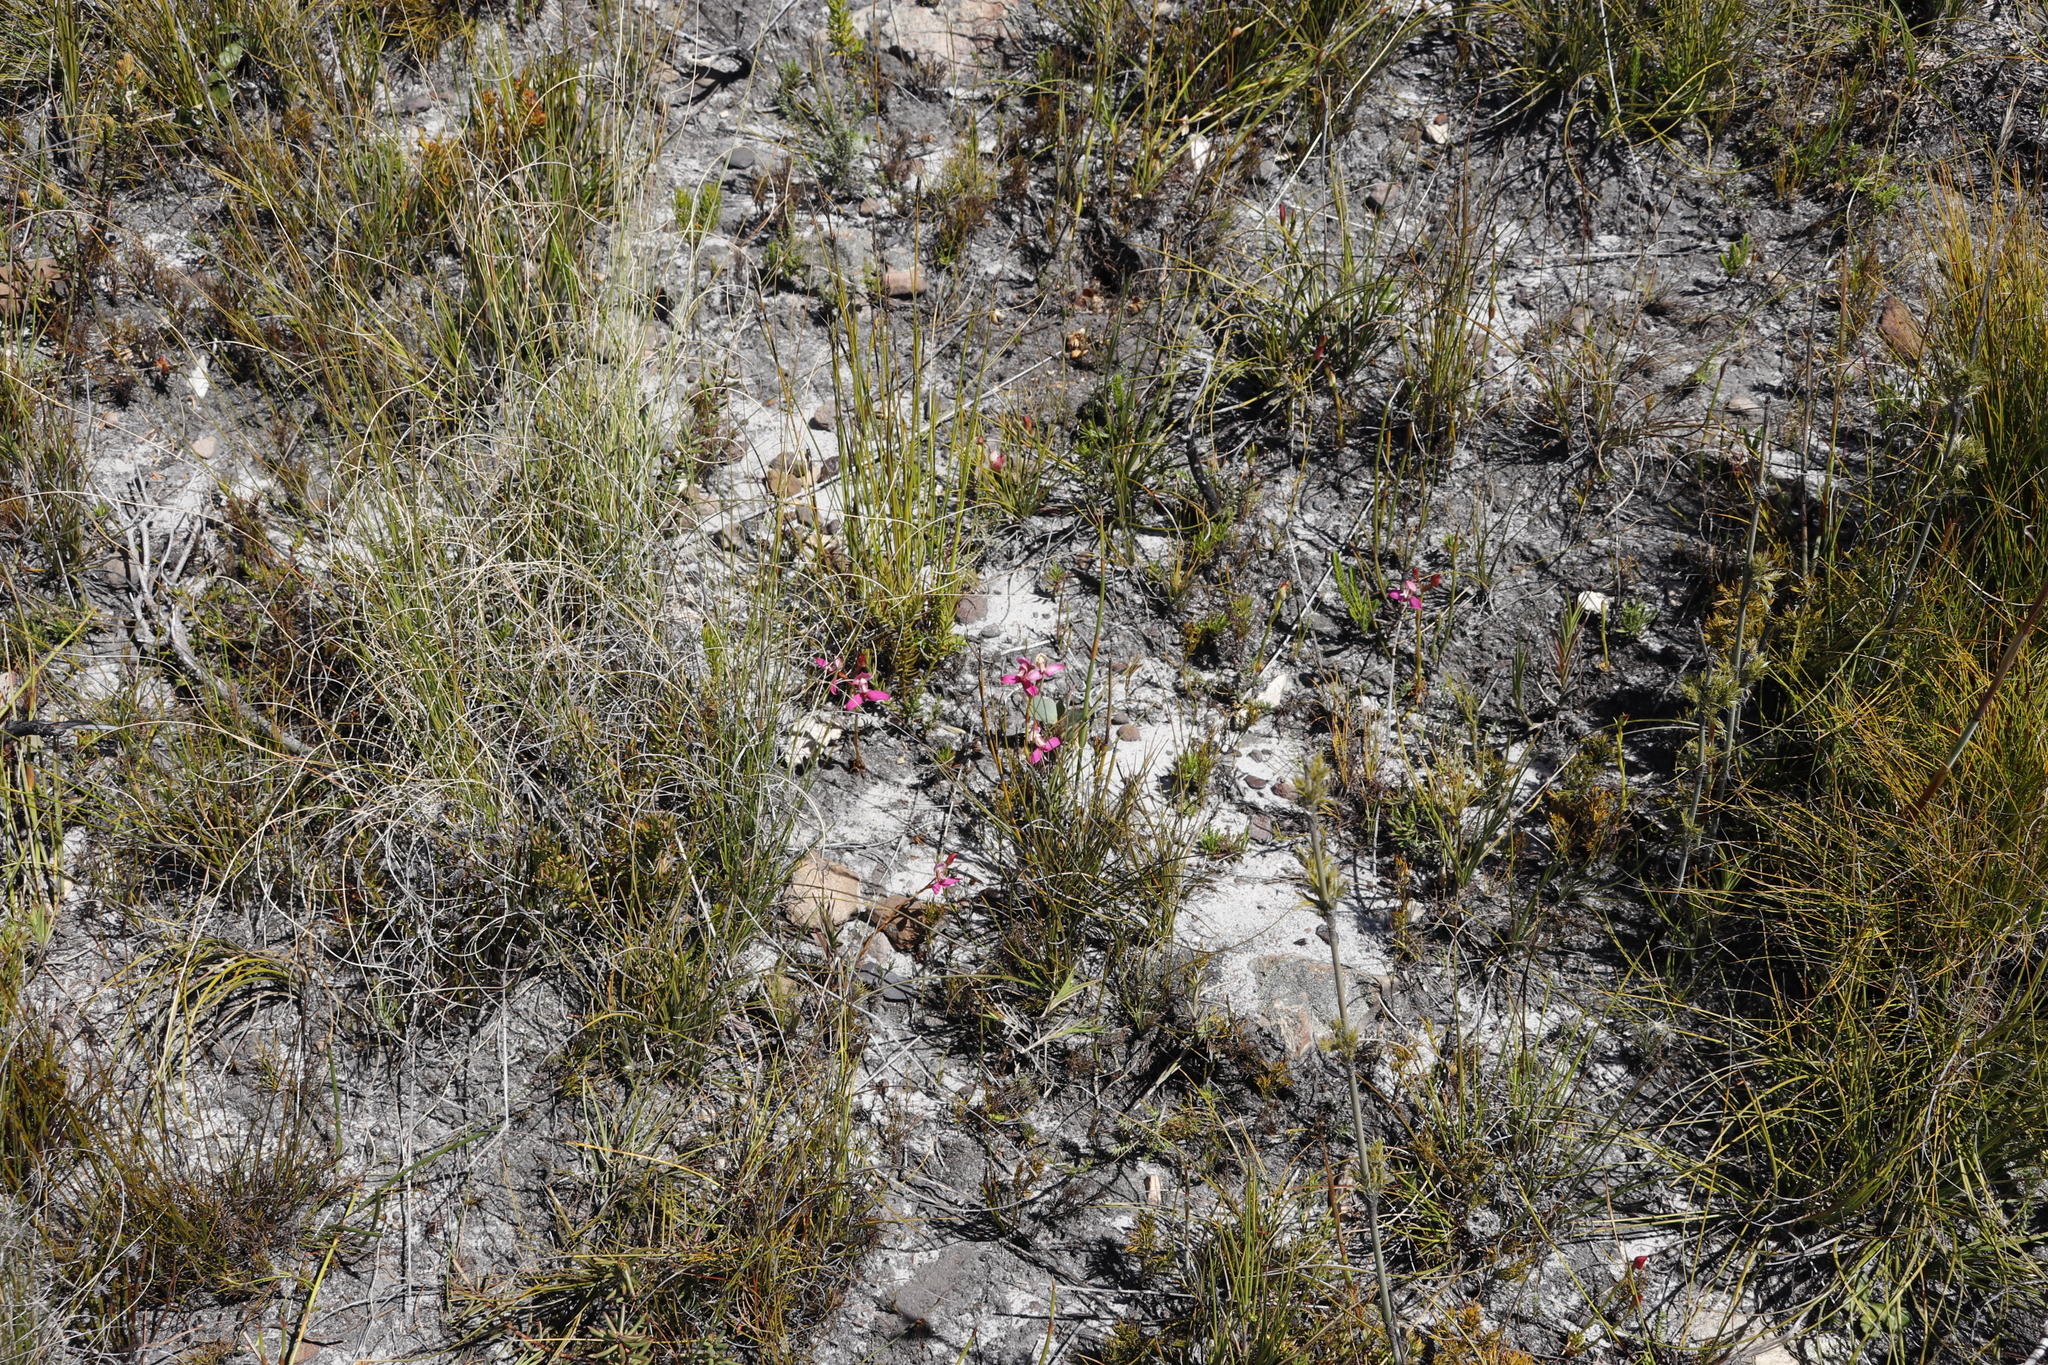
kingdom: Plantae
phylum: Tracheophyta
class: Liliopsida
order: Asparagales
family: Orchidaceae
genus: Disa
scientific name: Disa filicornis
